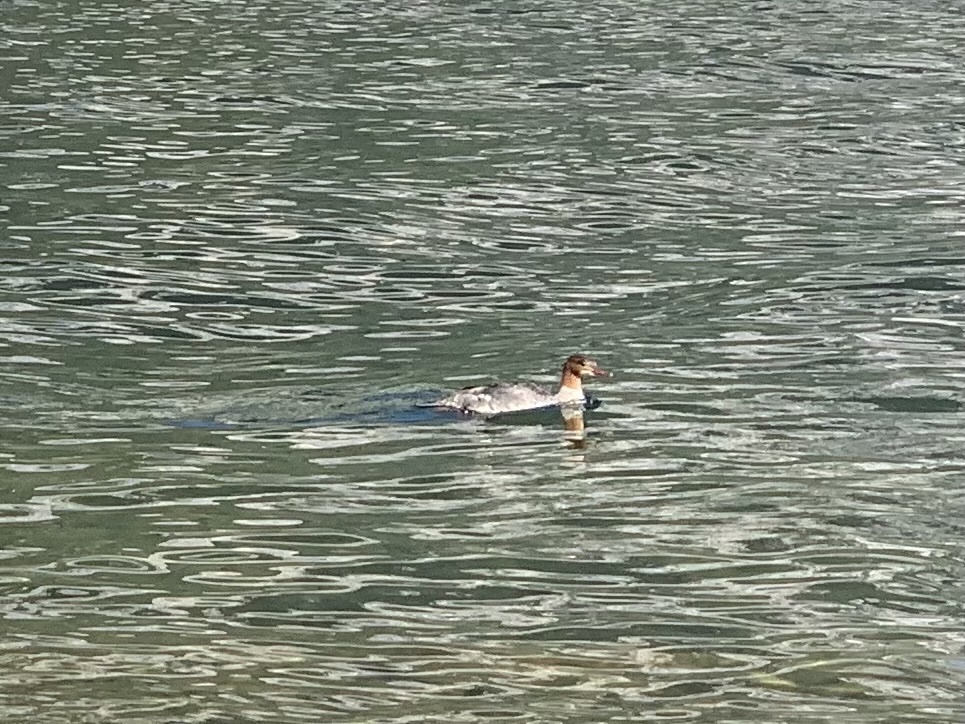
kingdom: Animalia
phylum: Chordata
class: Aves
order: Anseriformes
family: Anatidae
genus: Mergus
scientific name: Mergus merganser
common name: Common merganser
